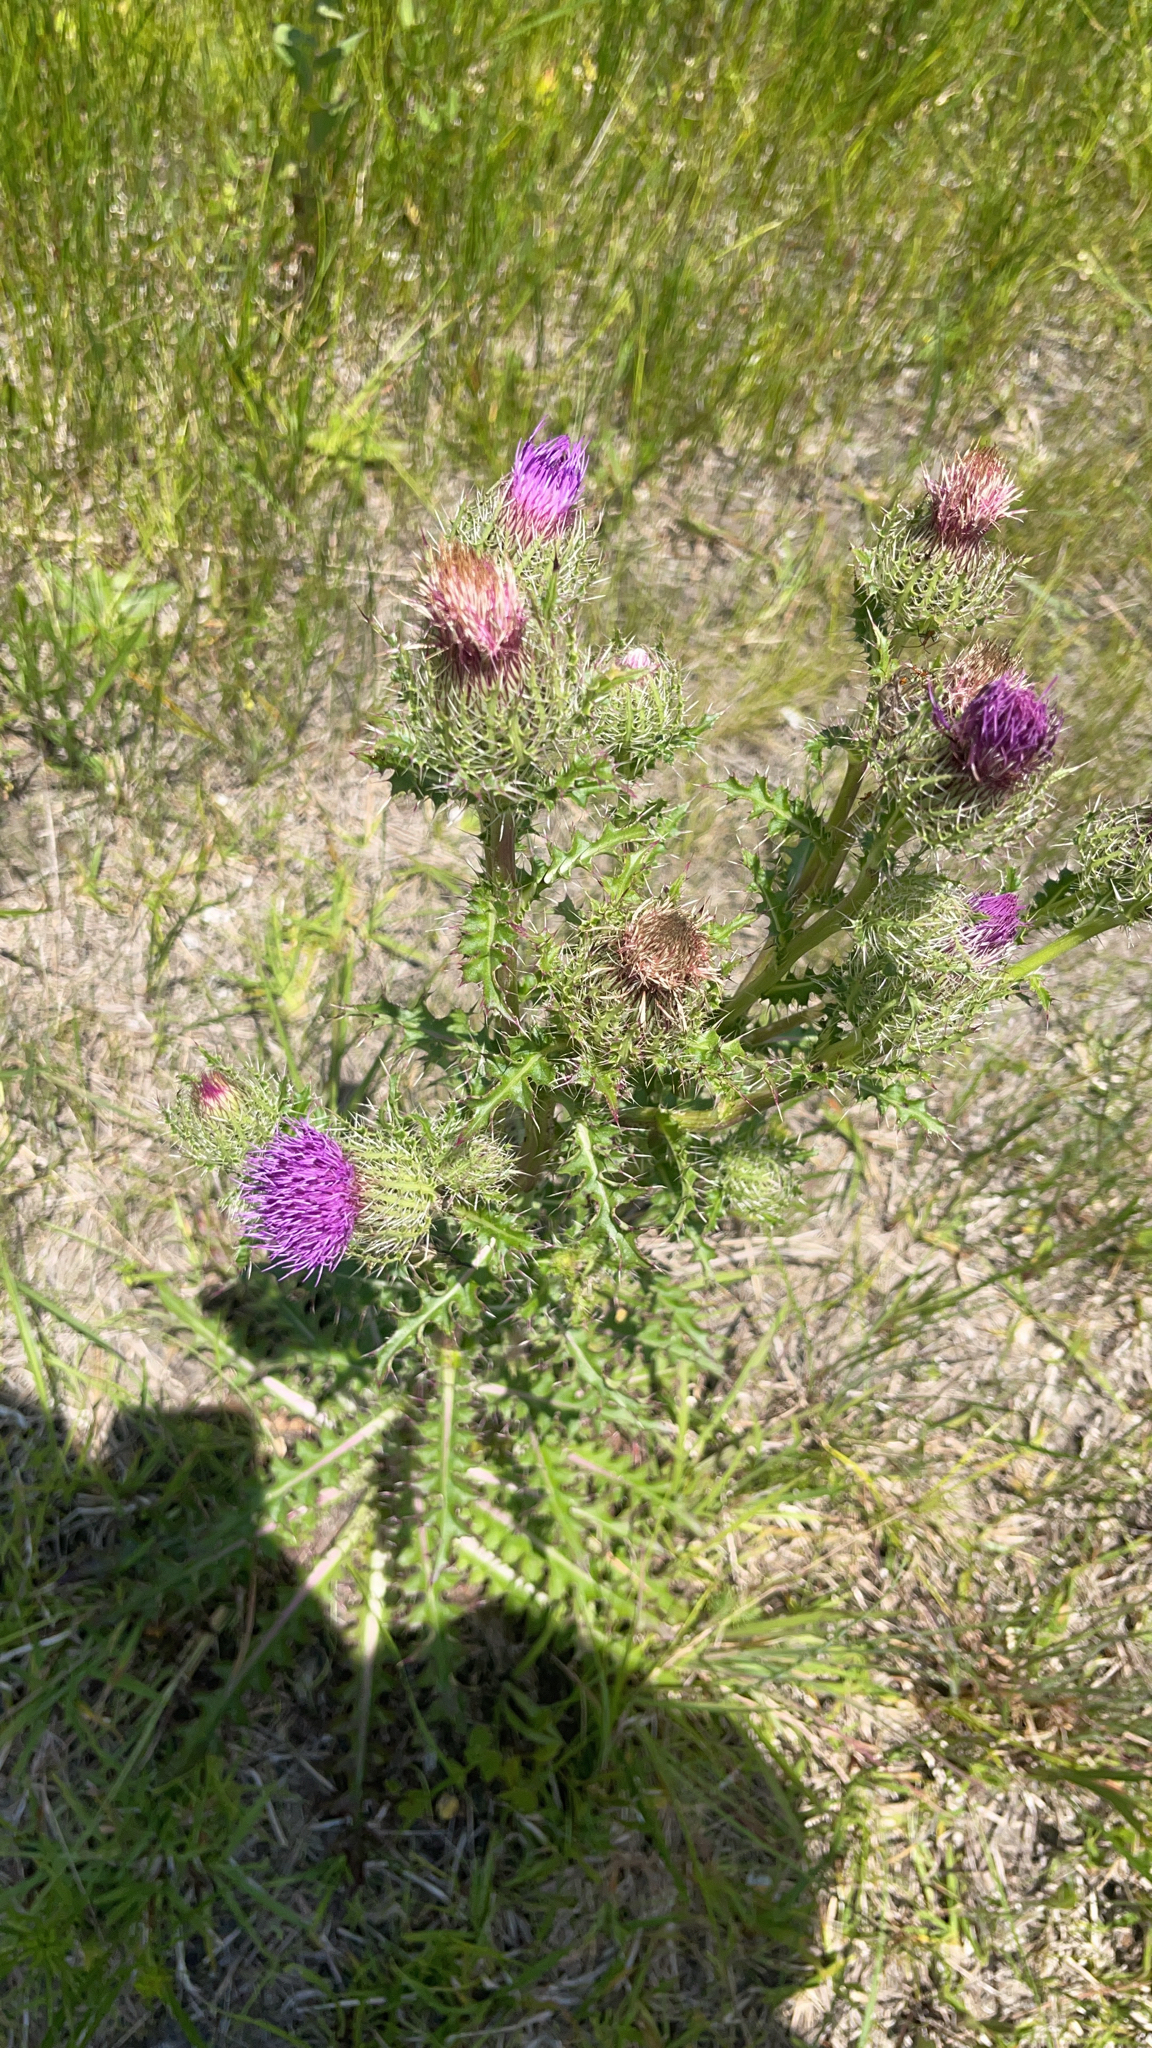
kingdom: Plantae
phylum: Tracheophyta
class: Magnoliopsida
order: Asterales
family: Asteraceae
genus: Cirsium
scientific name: Cirsium horridulum
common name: Bristly thistle
